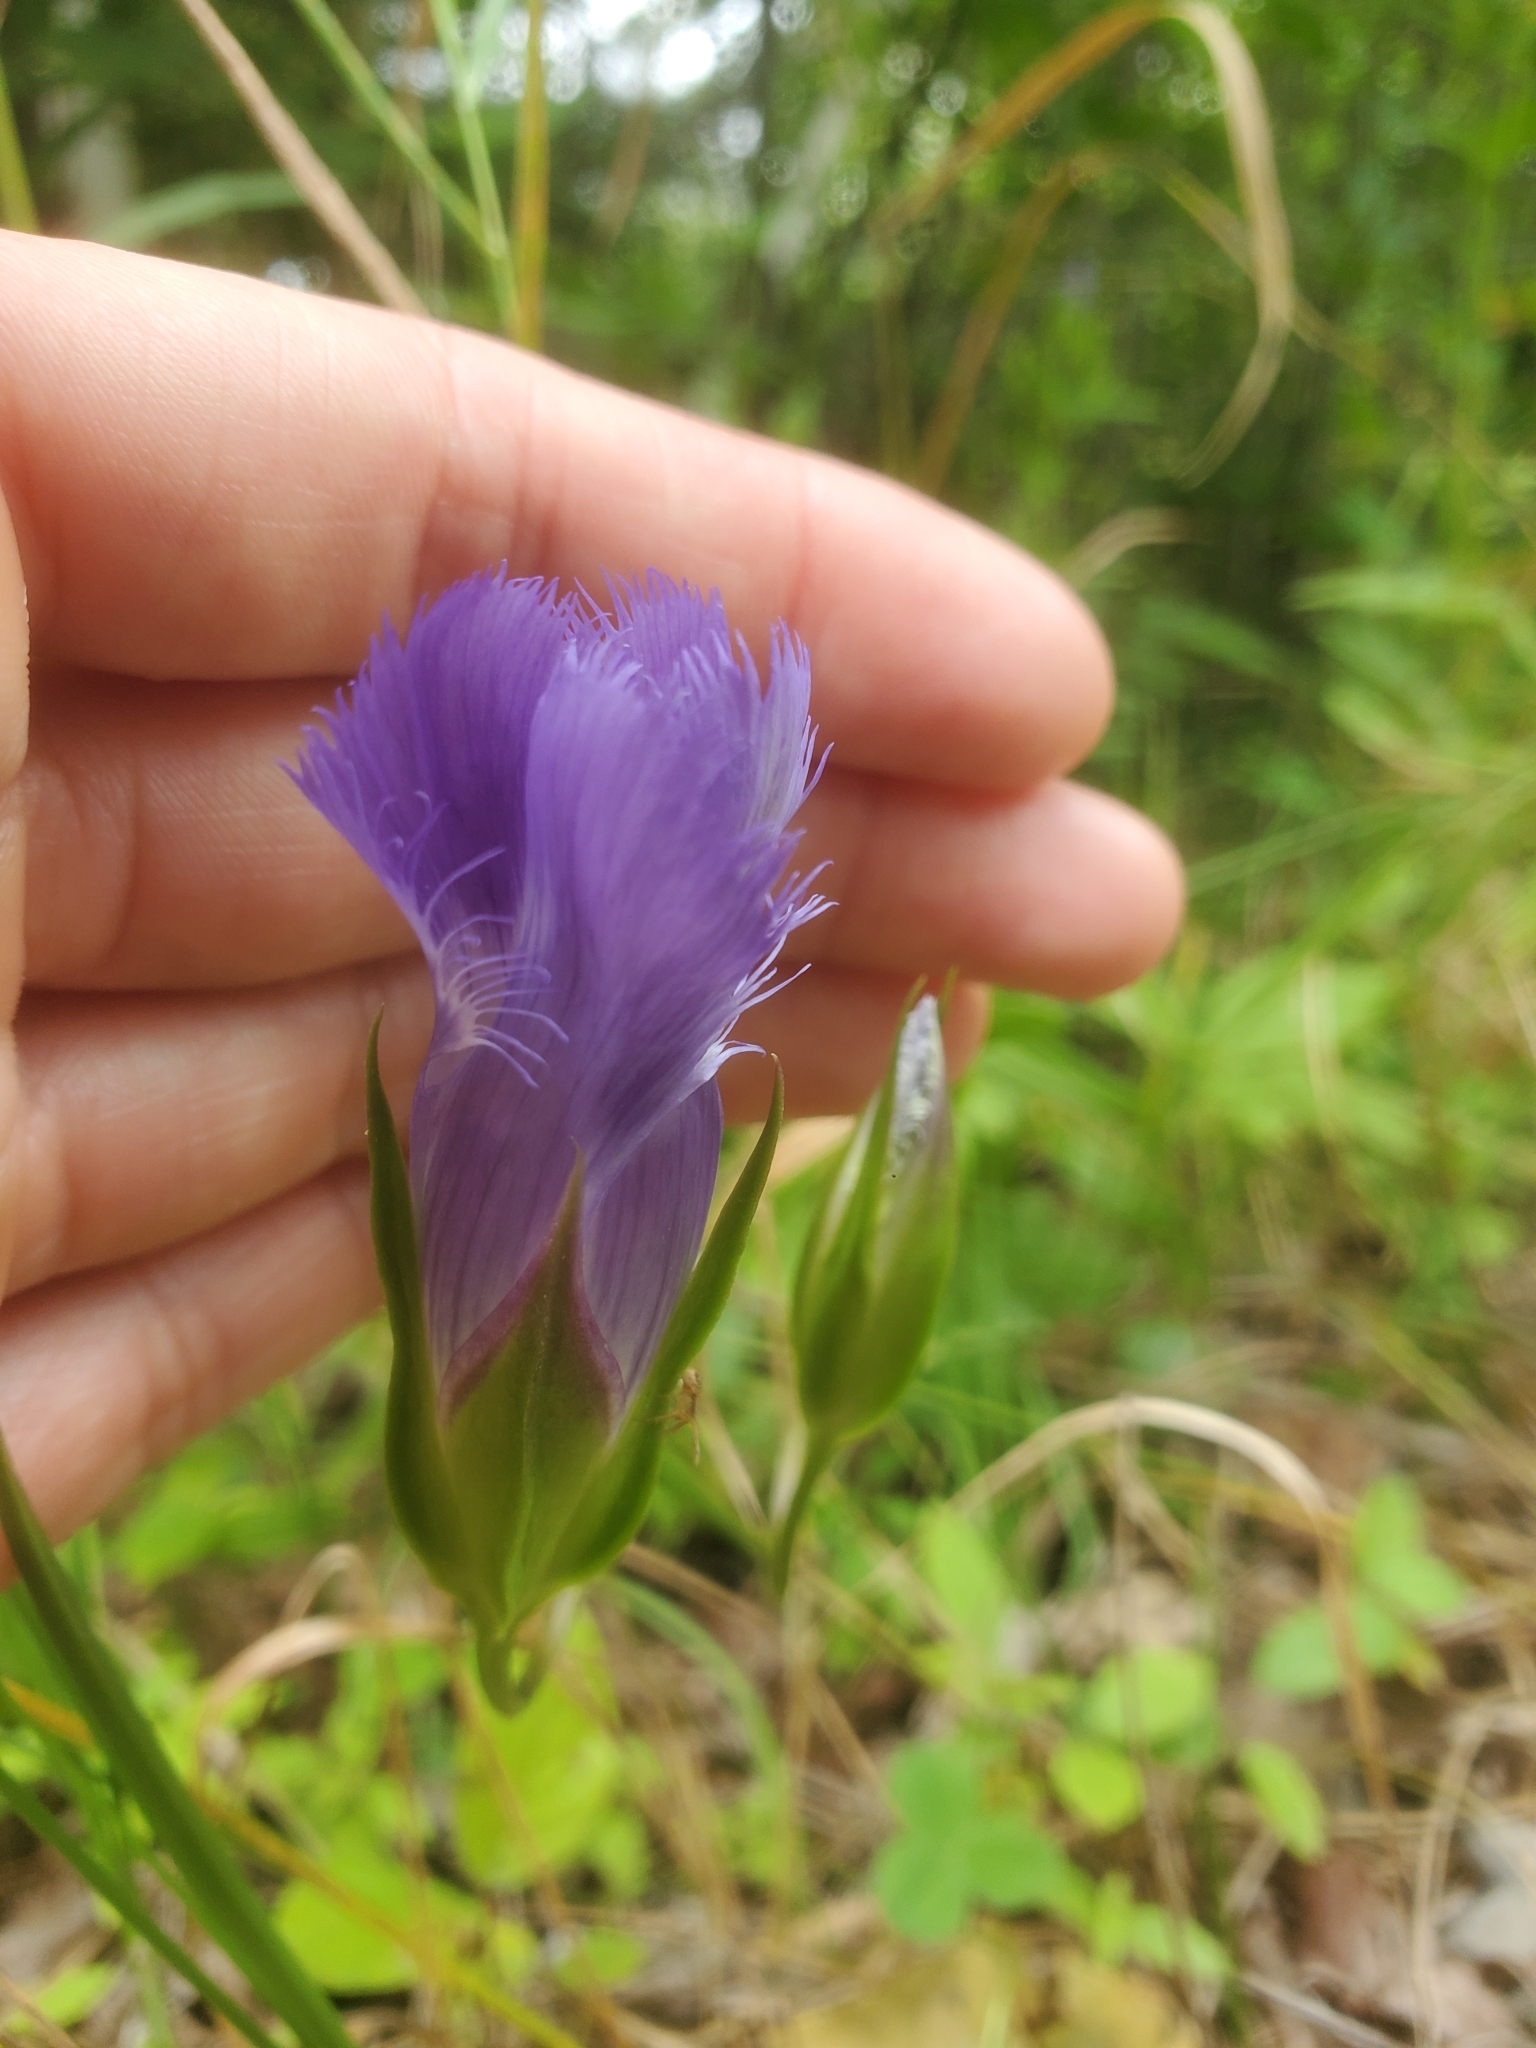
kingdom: Plantae
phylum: Tracheophyta
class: Magnoliopsida
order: Gentianales
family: Gentianaceae
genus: Gentianopsis
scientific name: Gentianopsis crinita
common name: Fringed-gentian
